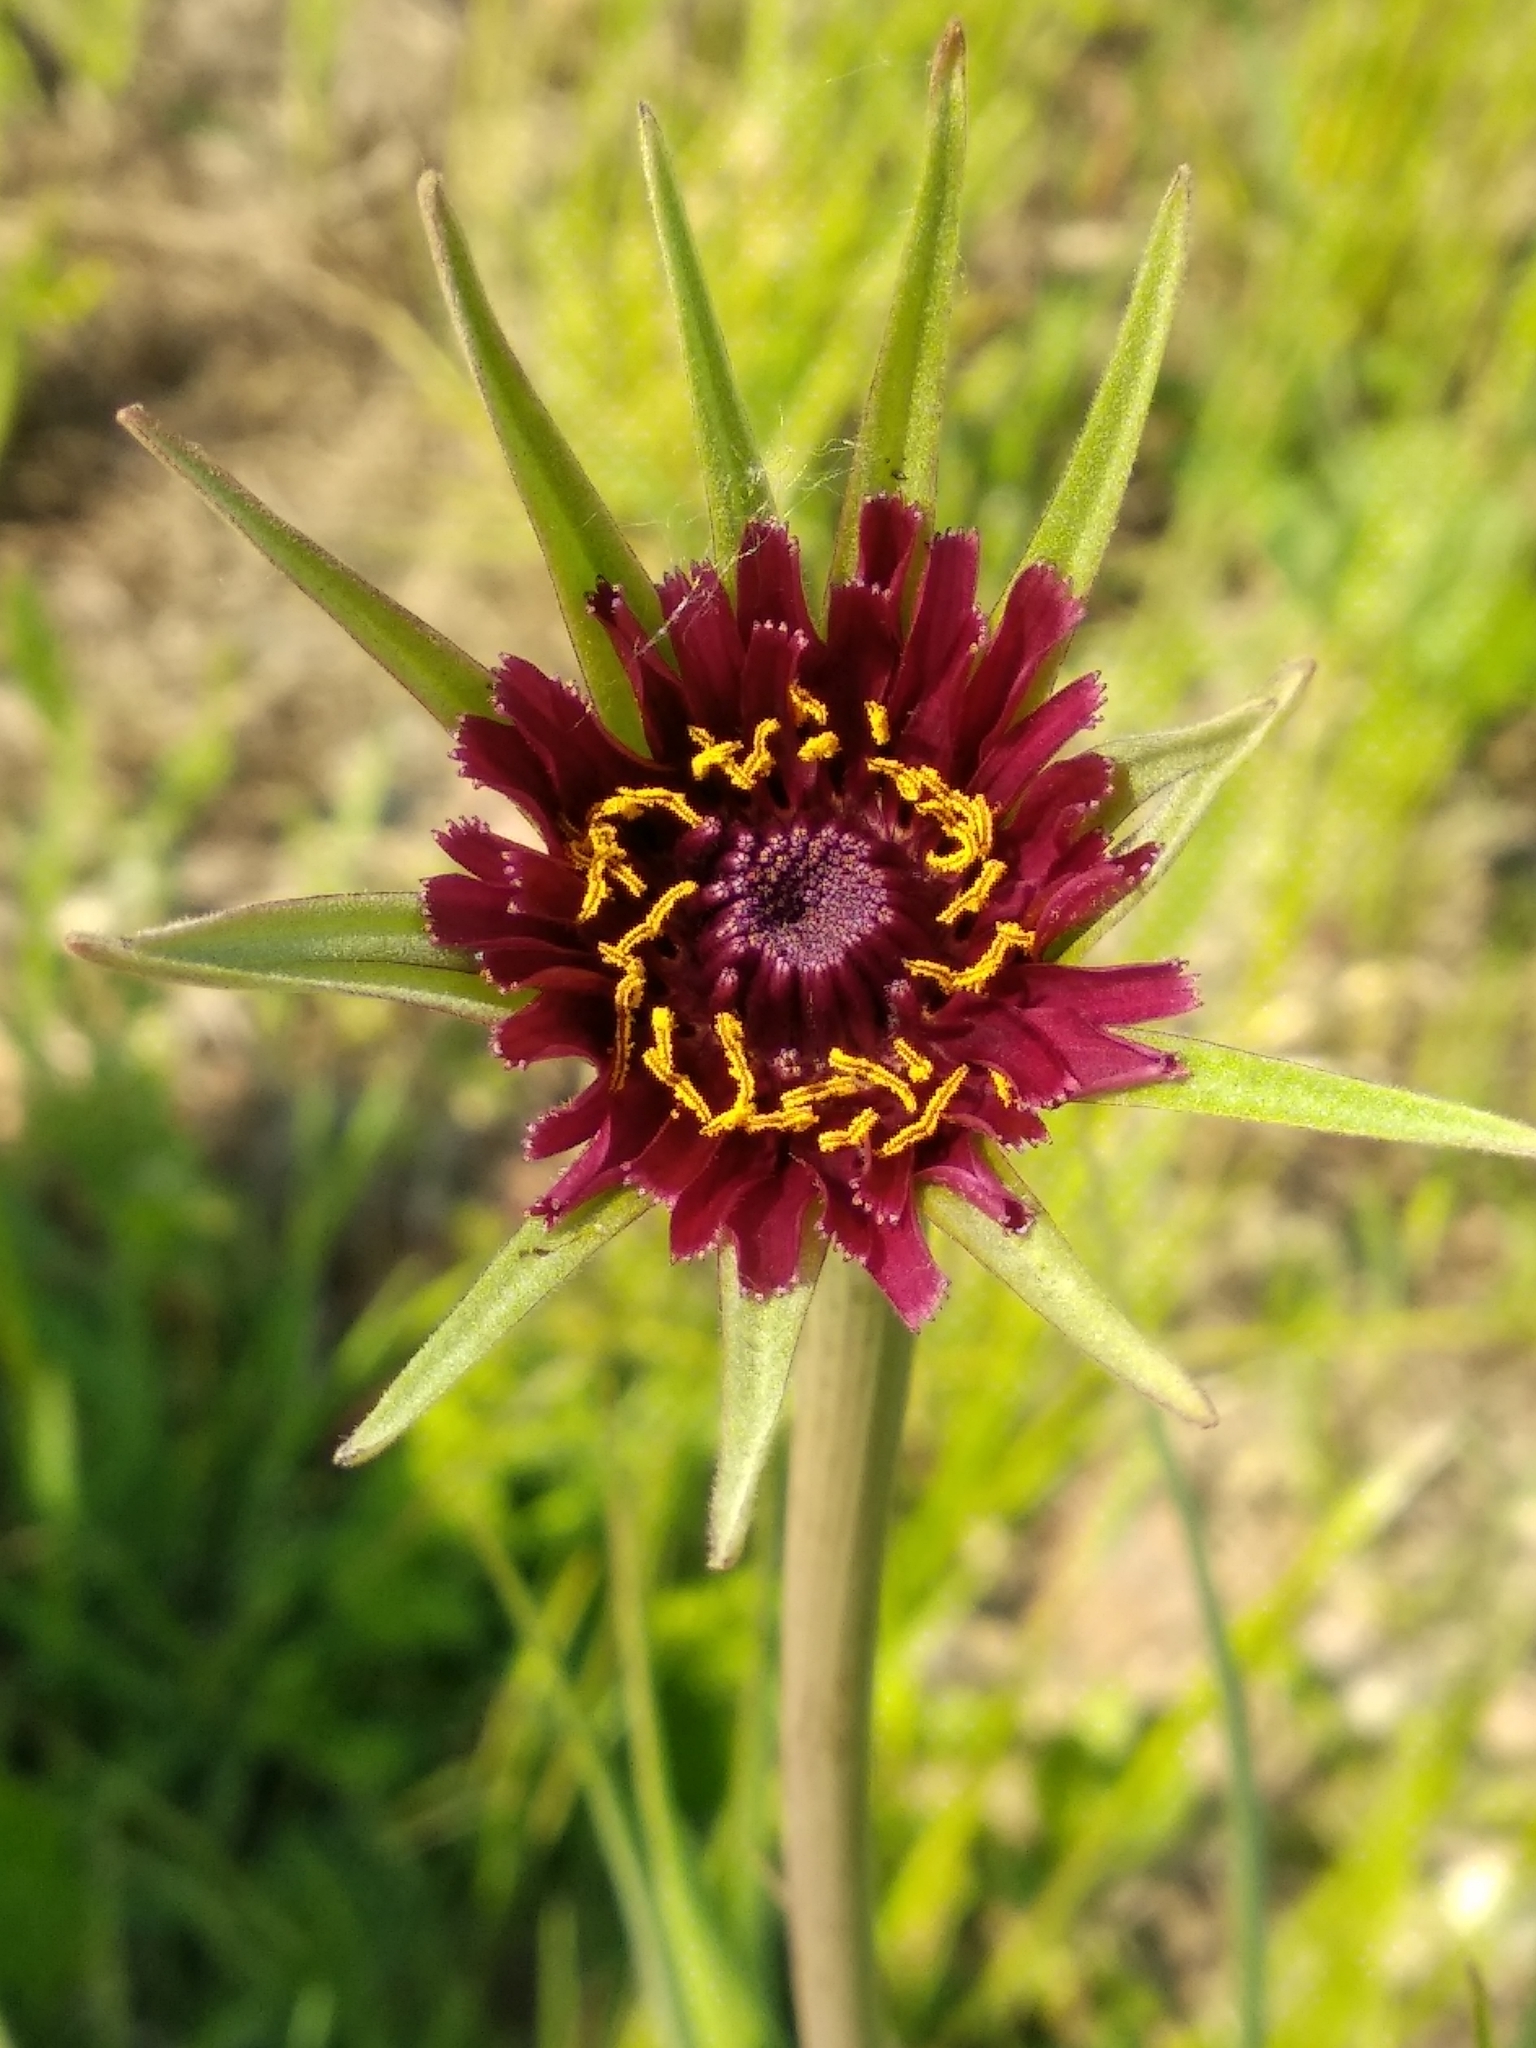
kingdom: Plantae
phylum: Tracheophyta
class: Magnoliopsida
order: Asterales
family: Asteraceae
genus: Tragopogon
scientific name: Tragopogon porrifolius
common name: Salsify
